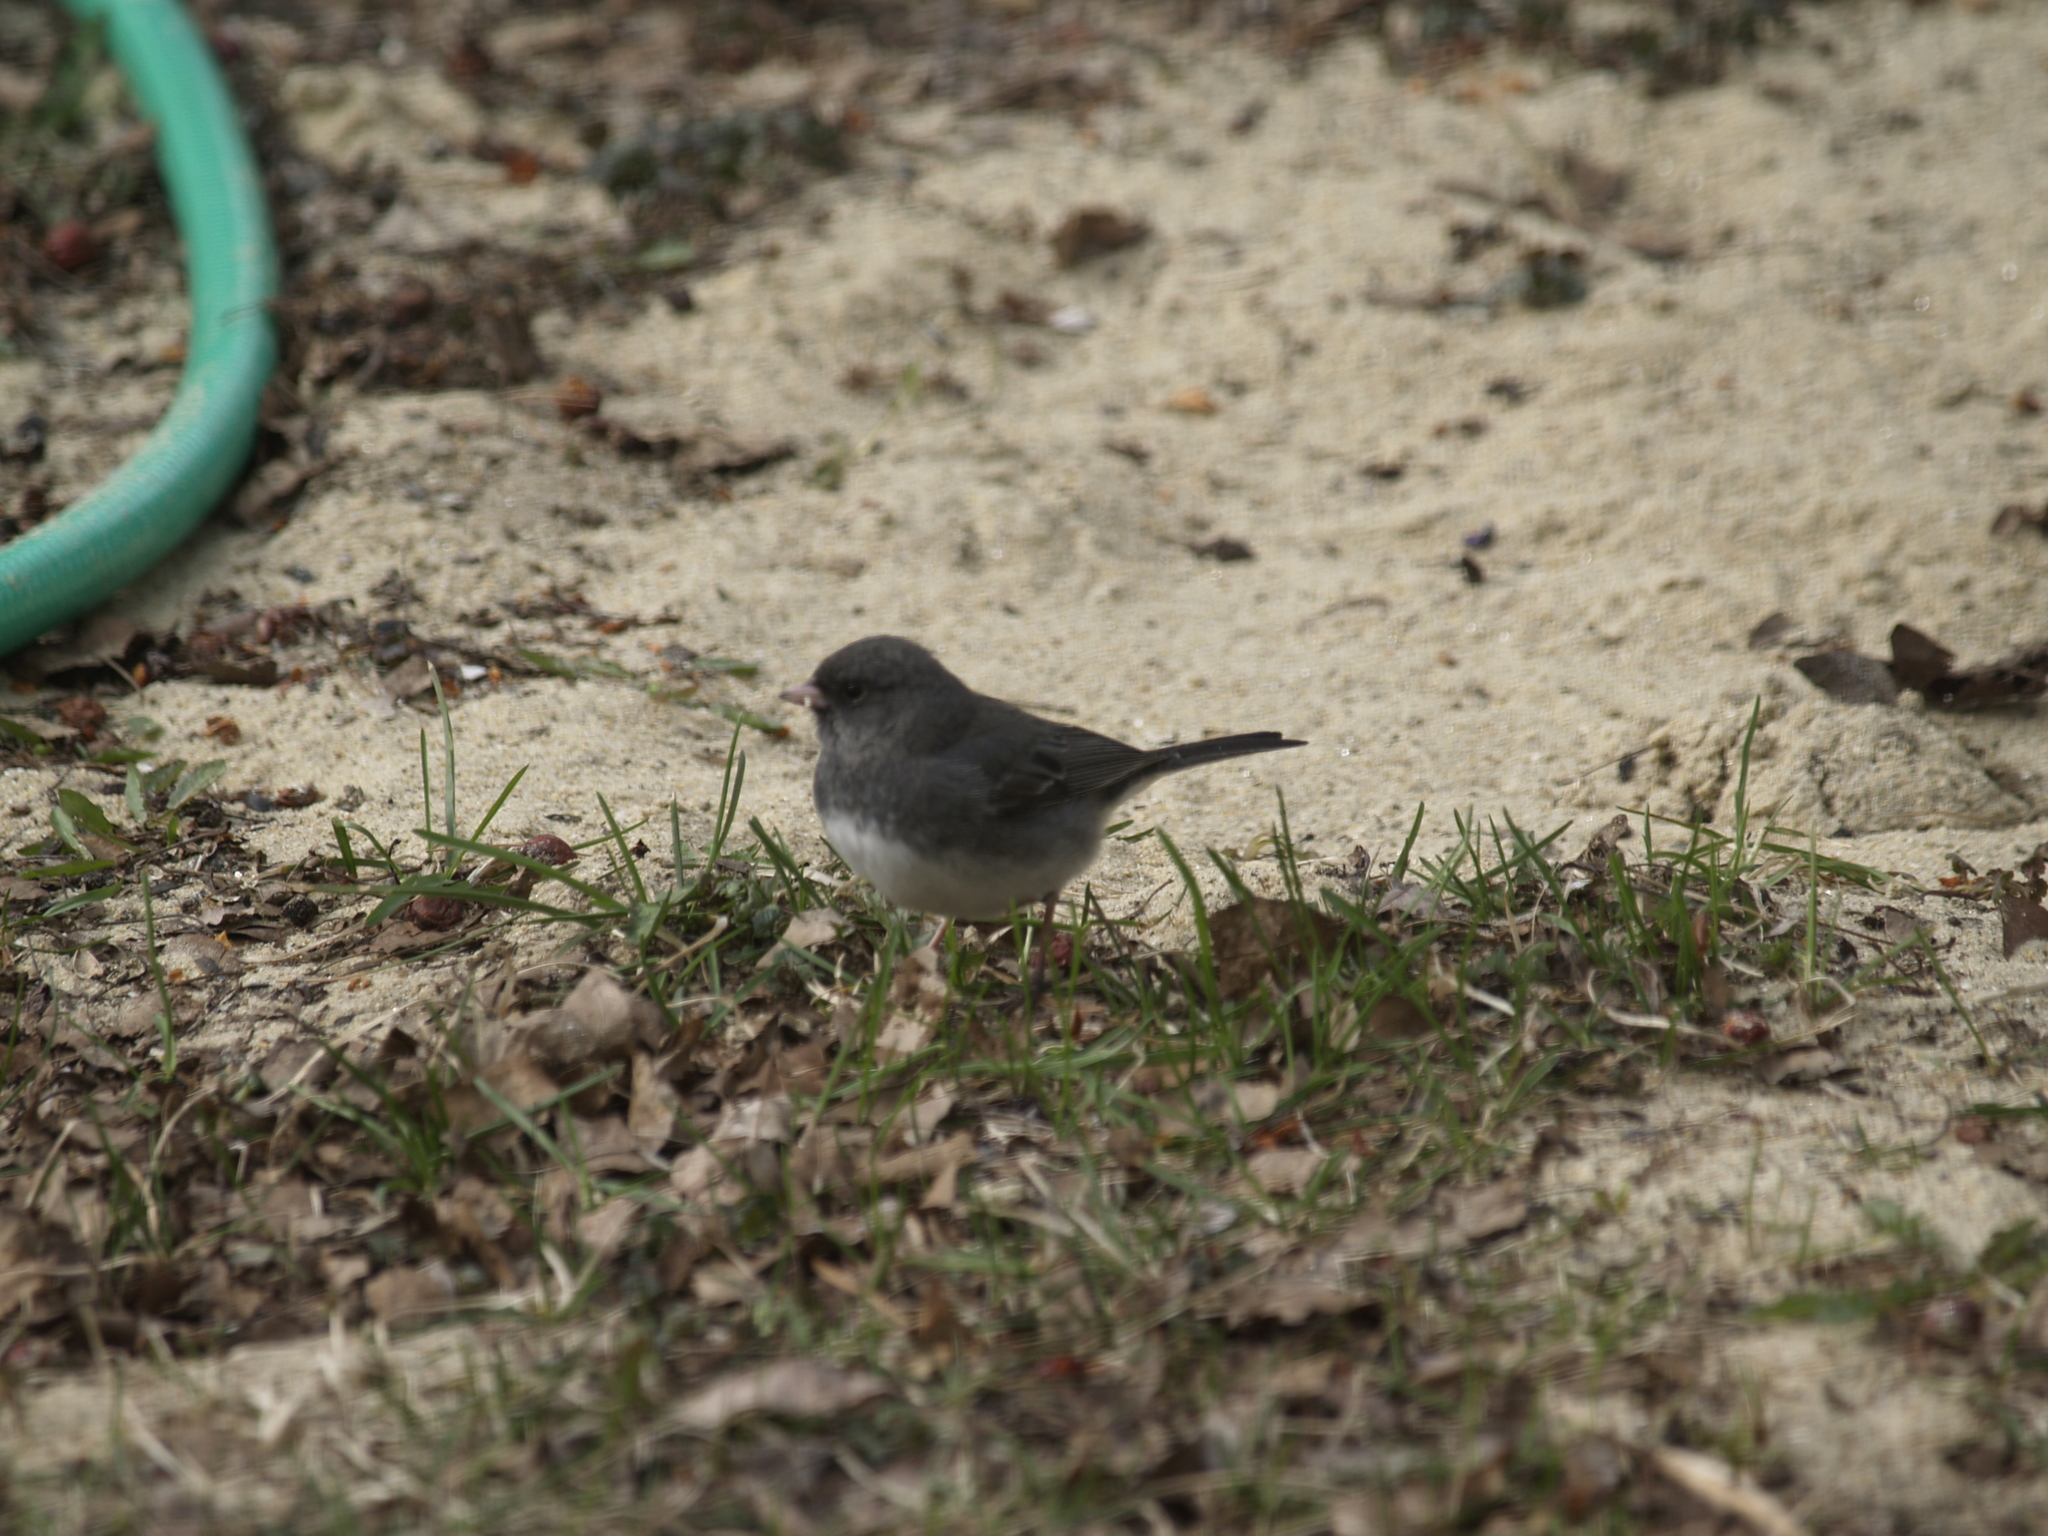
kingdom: Animalia
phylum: Chordata
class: Aves
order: Passeriformes
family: Passerellidae
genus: Junco
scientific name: Junco hyemalis
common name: Dark-eyed junco
